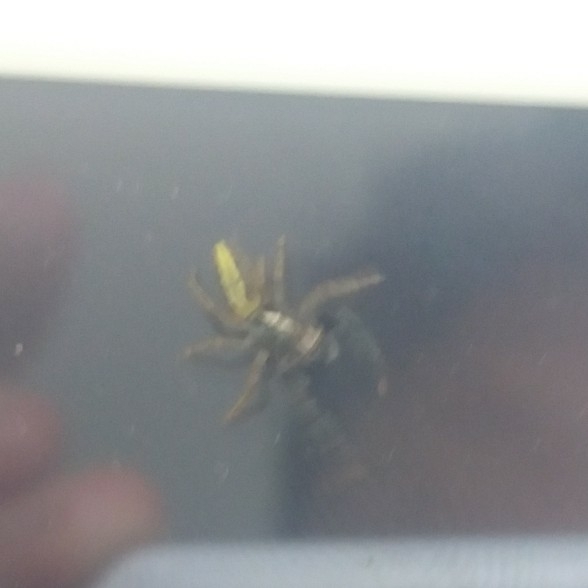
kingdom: Animalia
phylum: Arthropoda
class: Arachnida
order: Araneae
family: Salticidae
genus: Trite
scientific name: Trite planiceps
